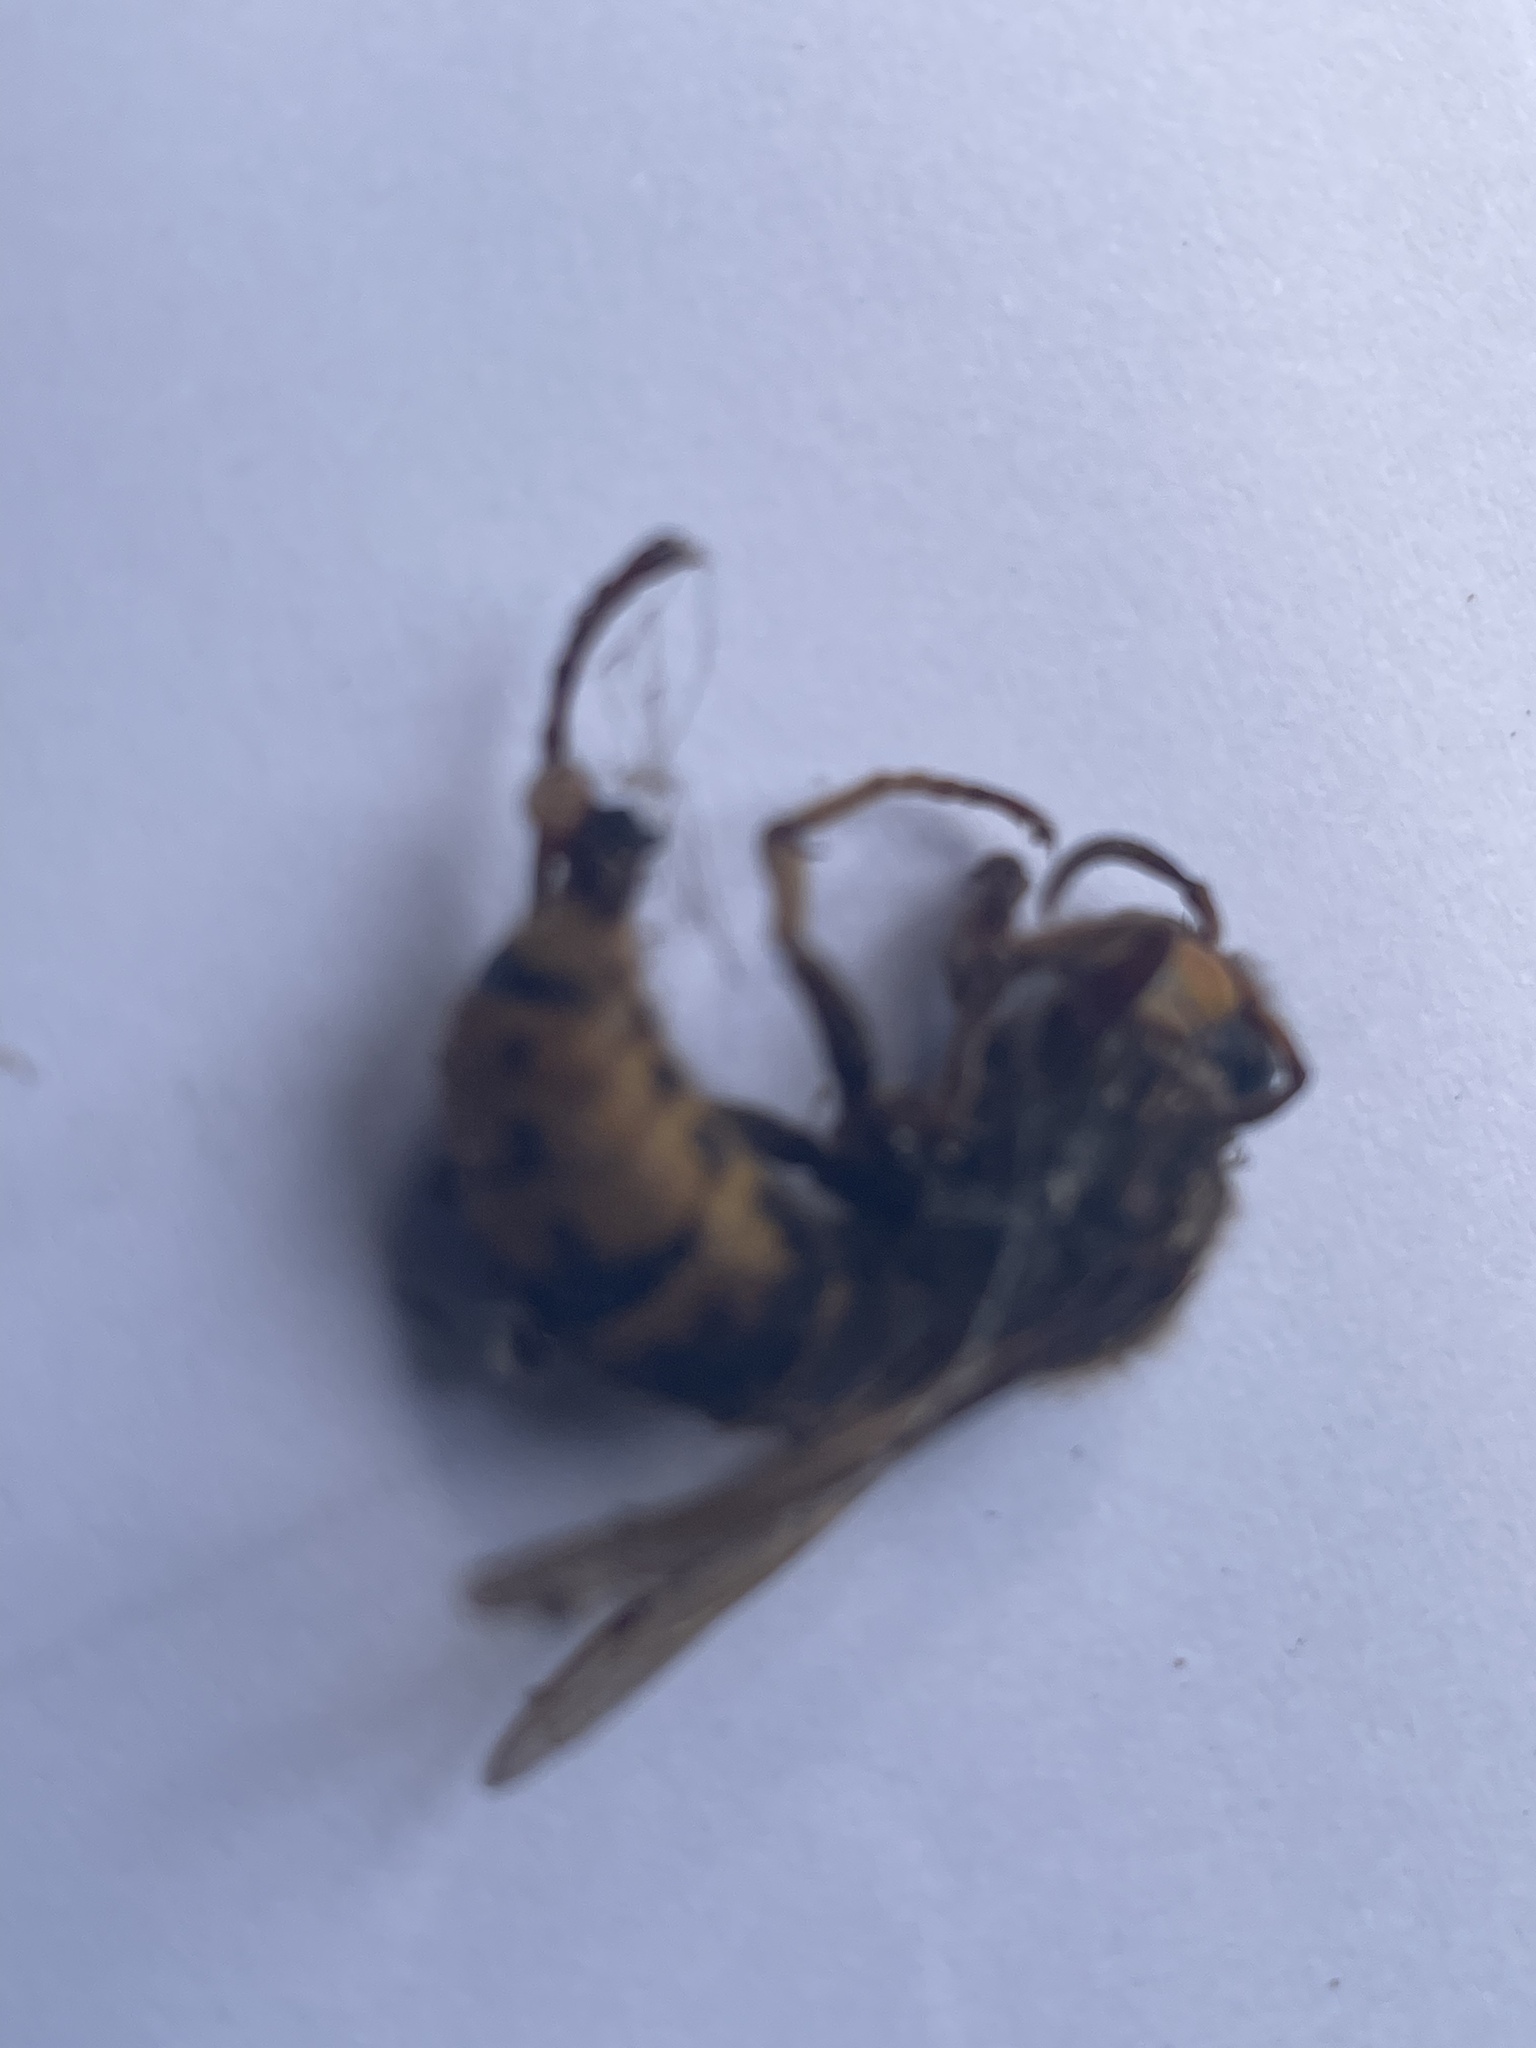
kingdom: Animalia
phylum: Arthropoda
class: Insecta
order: Hymenoptera
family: Vespidae
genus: Vespa
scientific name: Vespa crabro
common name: Hornet
